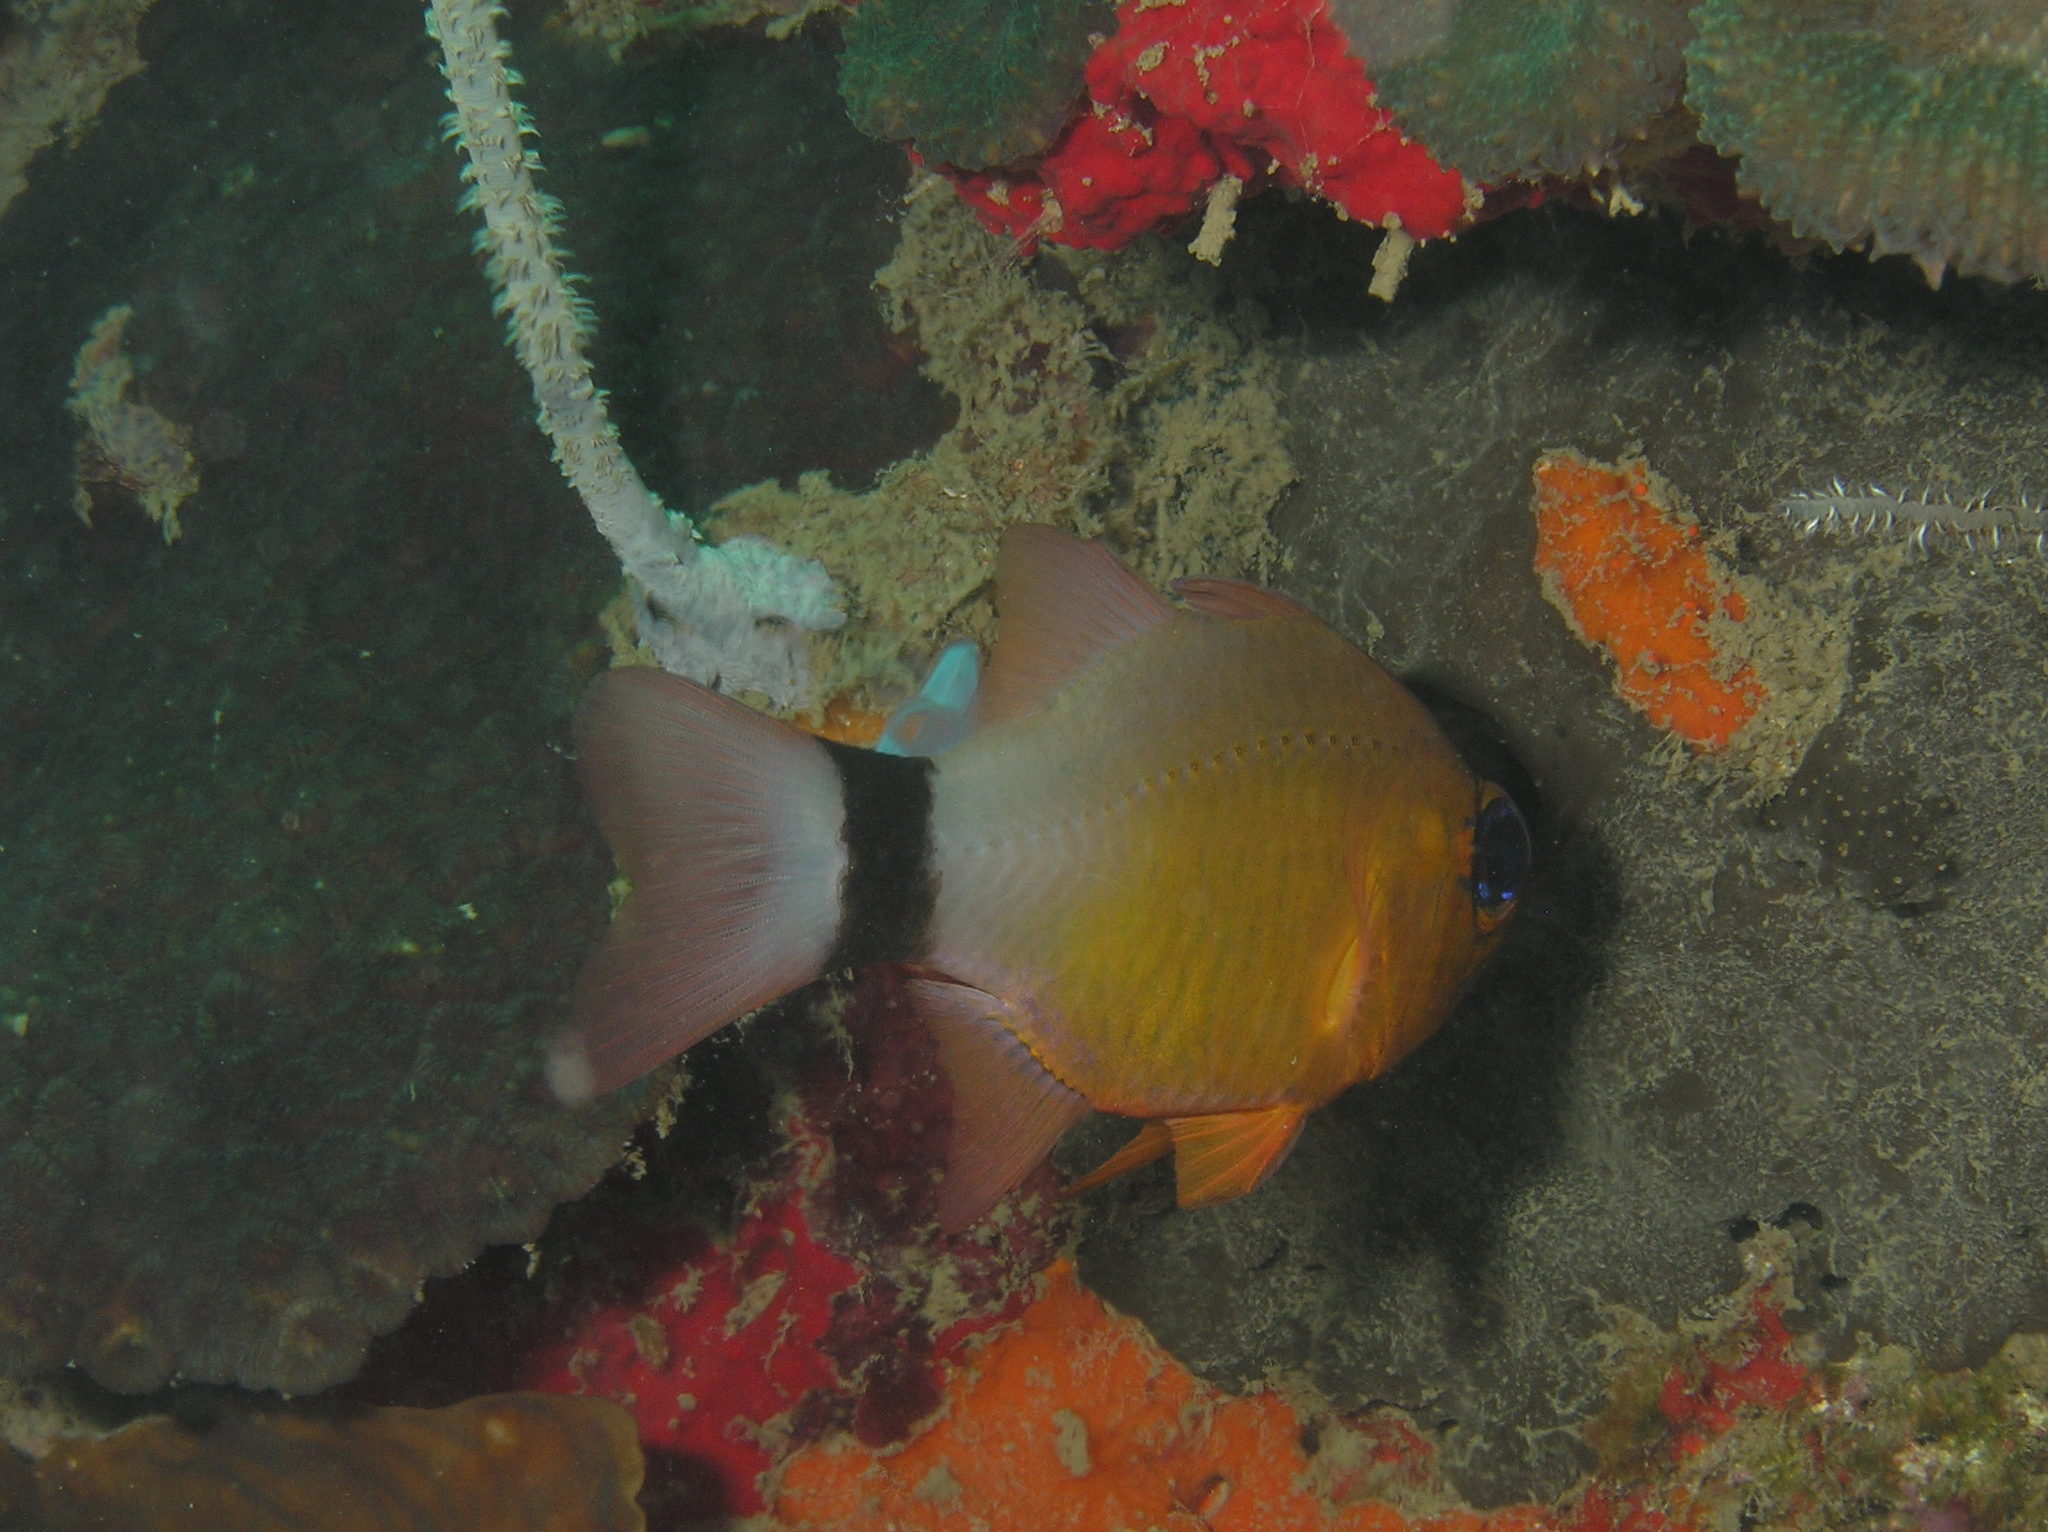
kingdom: Animalia
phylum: Chordata
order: Perciformes
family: Apogonidae
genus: Ostorhinchus
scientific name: Ostorhinchus aureus
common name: Ring-tailed cardinalfish
